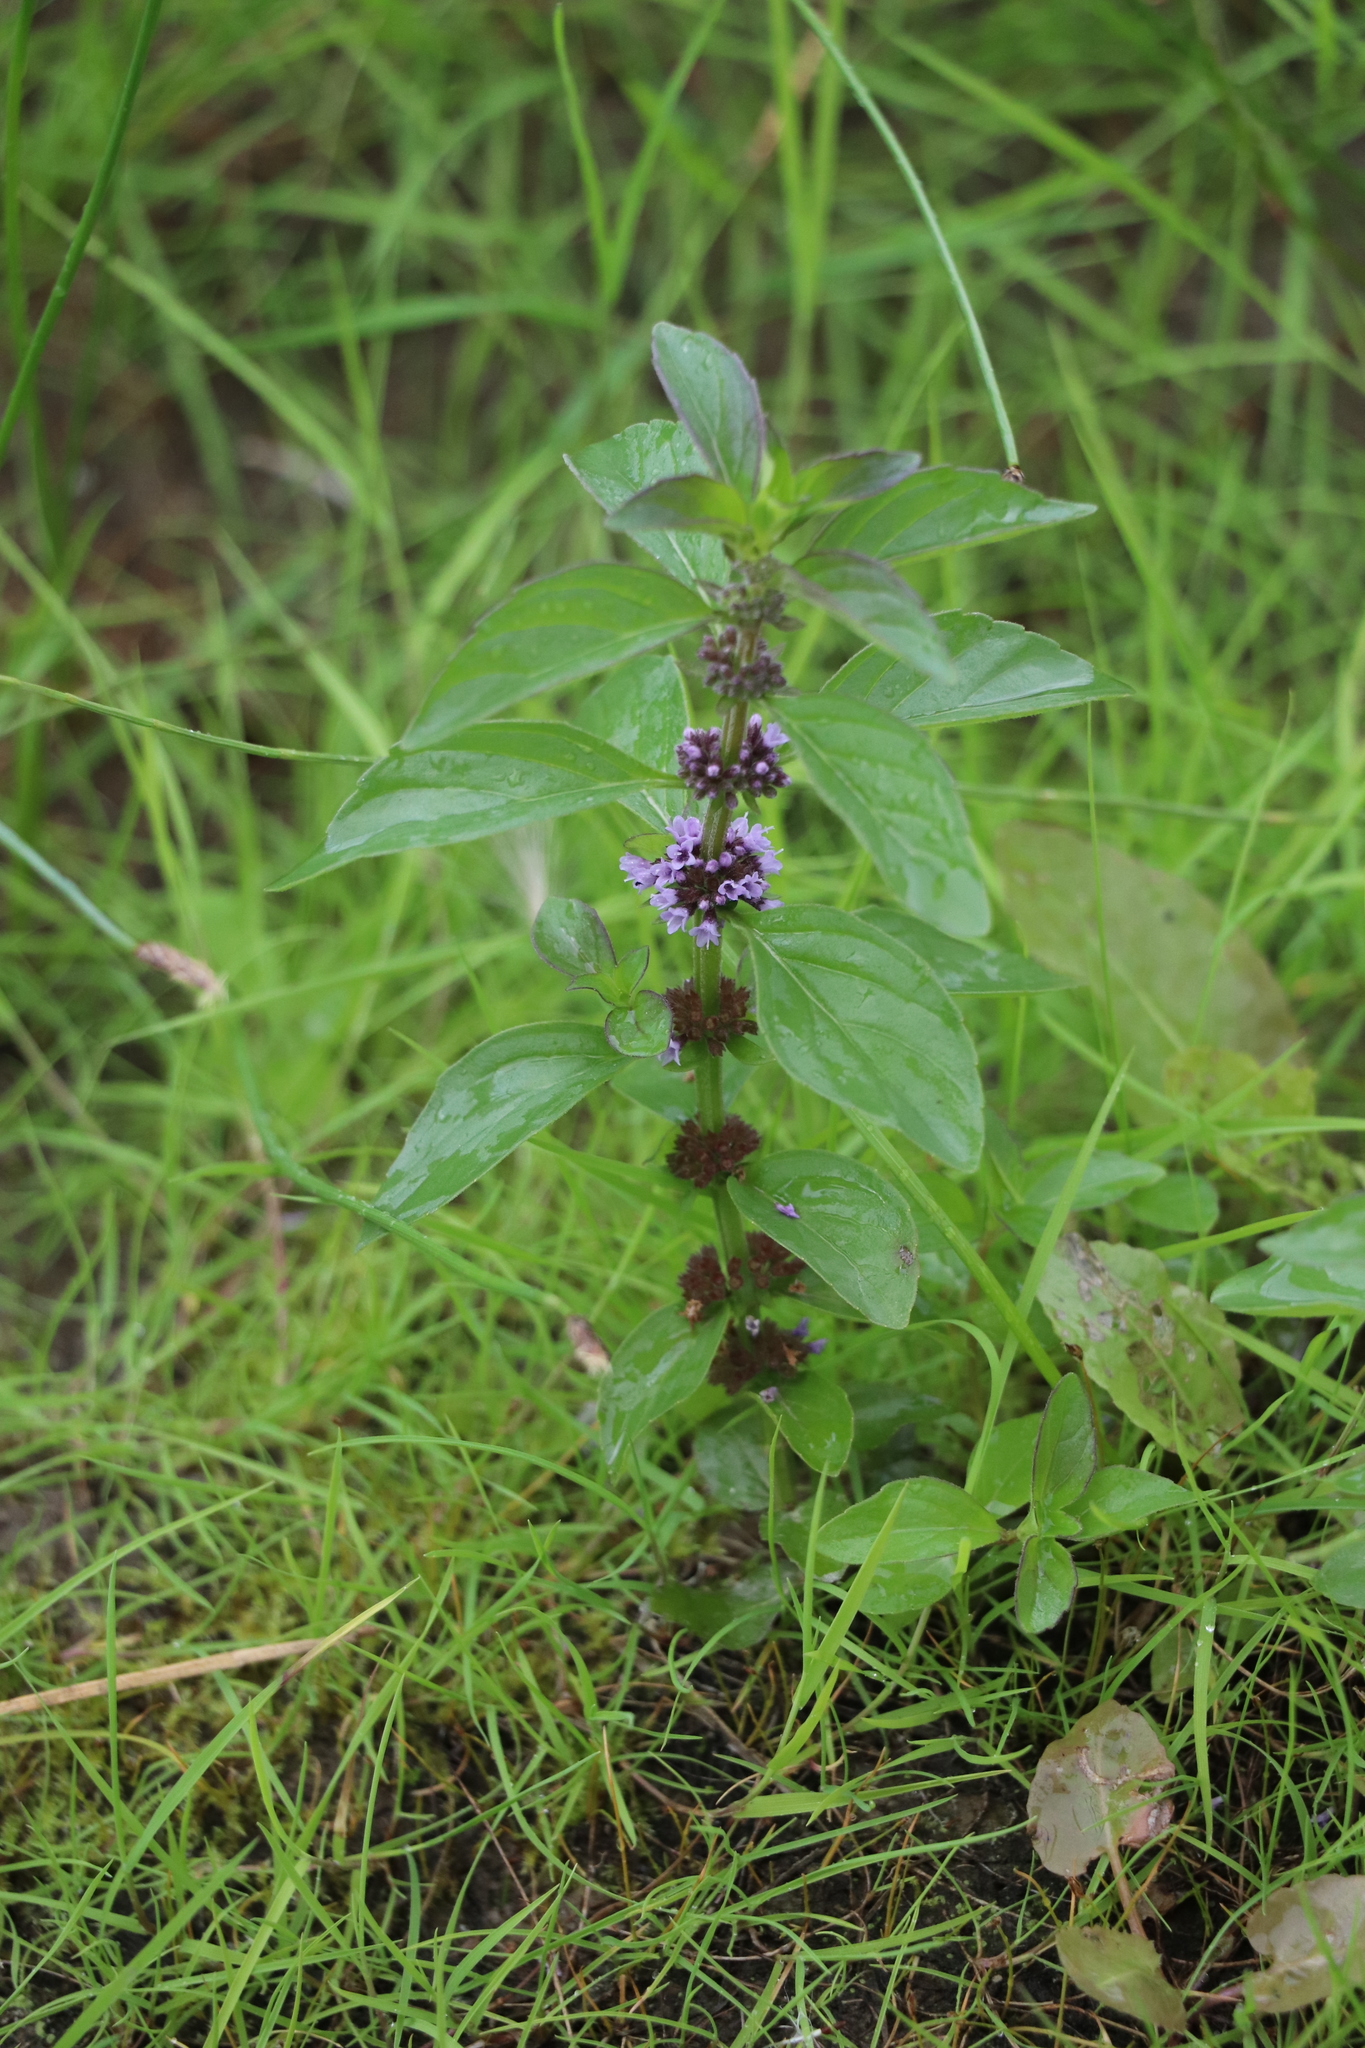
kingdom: Plantae
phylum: Tracheophyta
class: Magnoliopsida
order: Lamiales
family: Lamiaceae
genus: Mentha
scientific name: Mentha arvensis
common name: Corn mint
